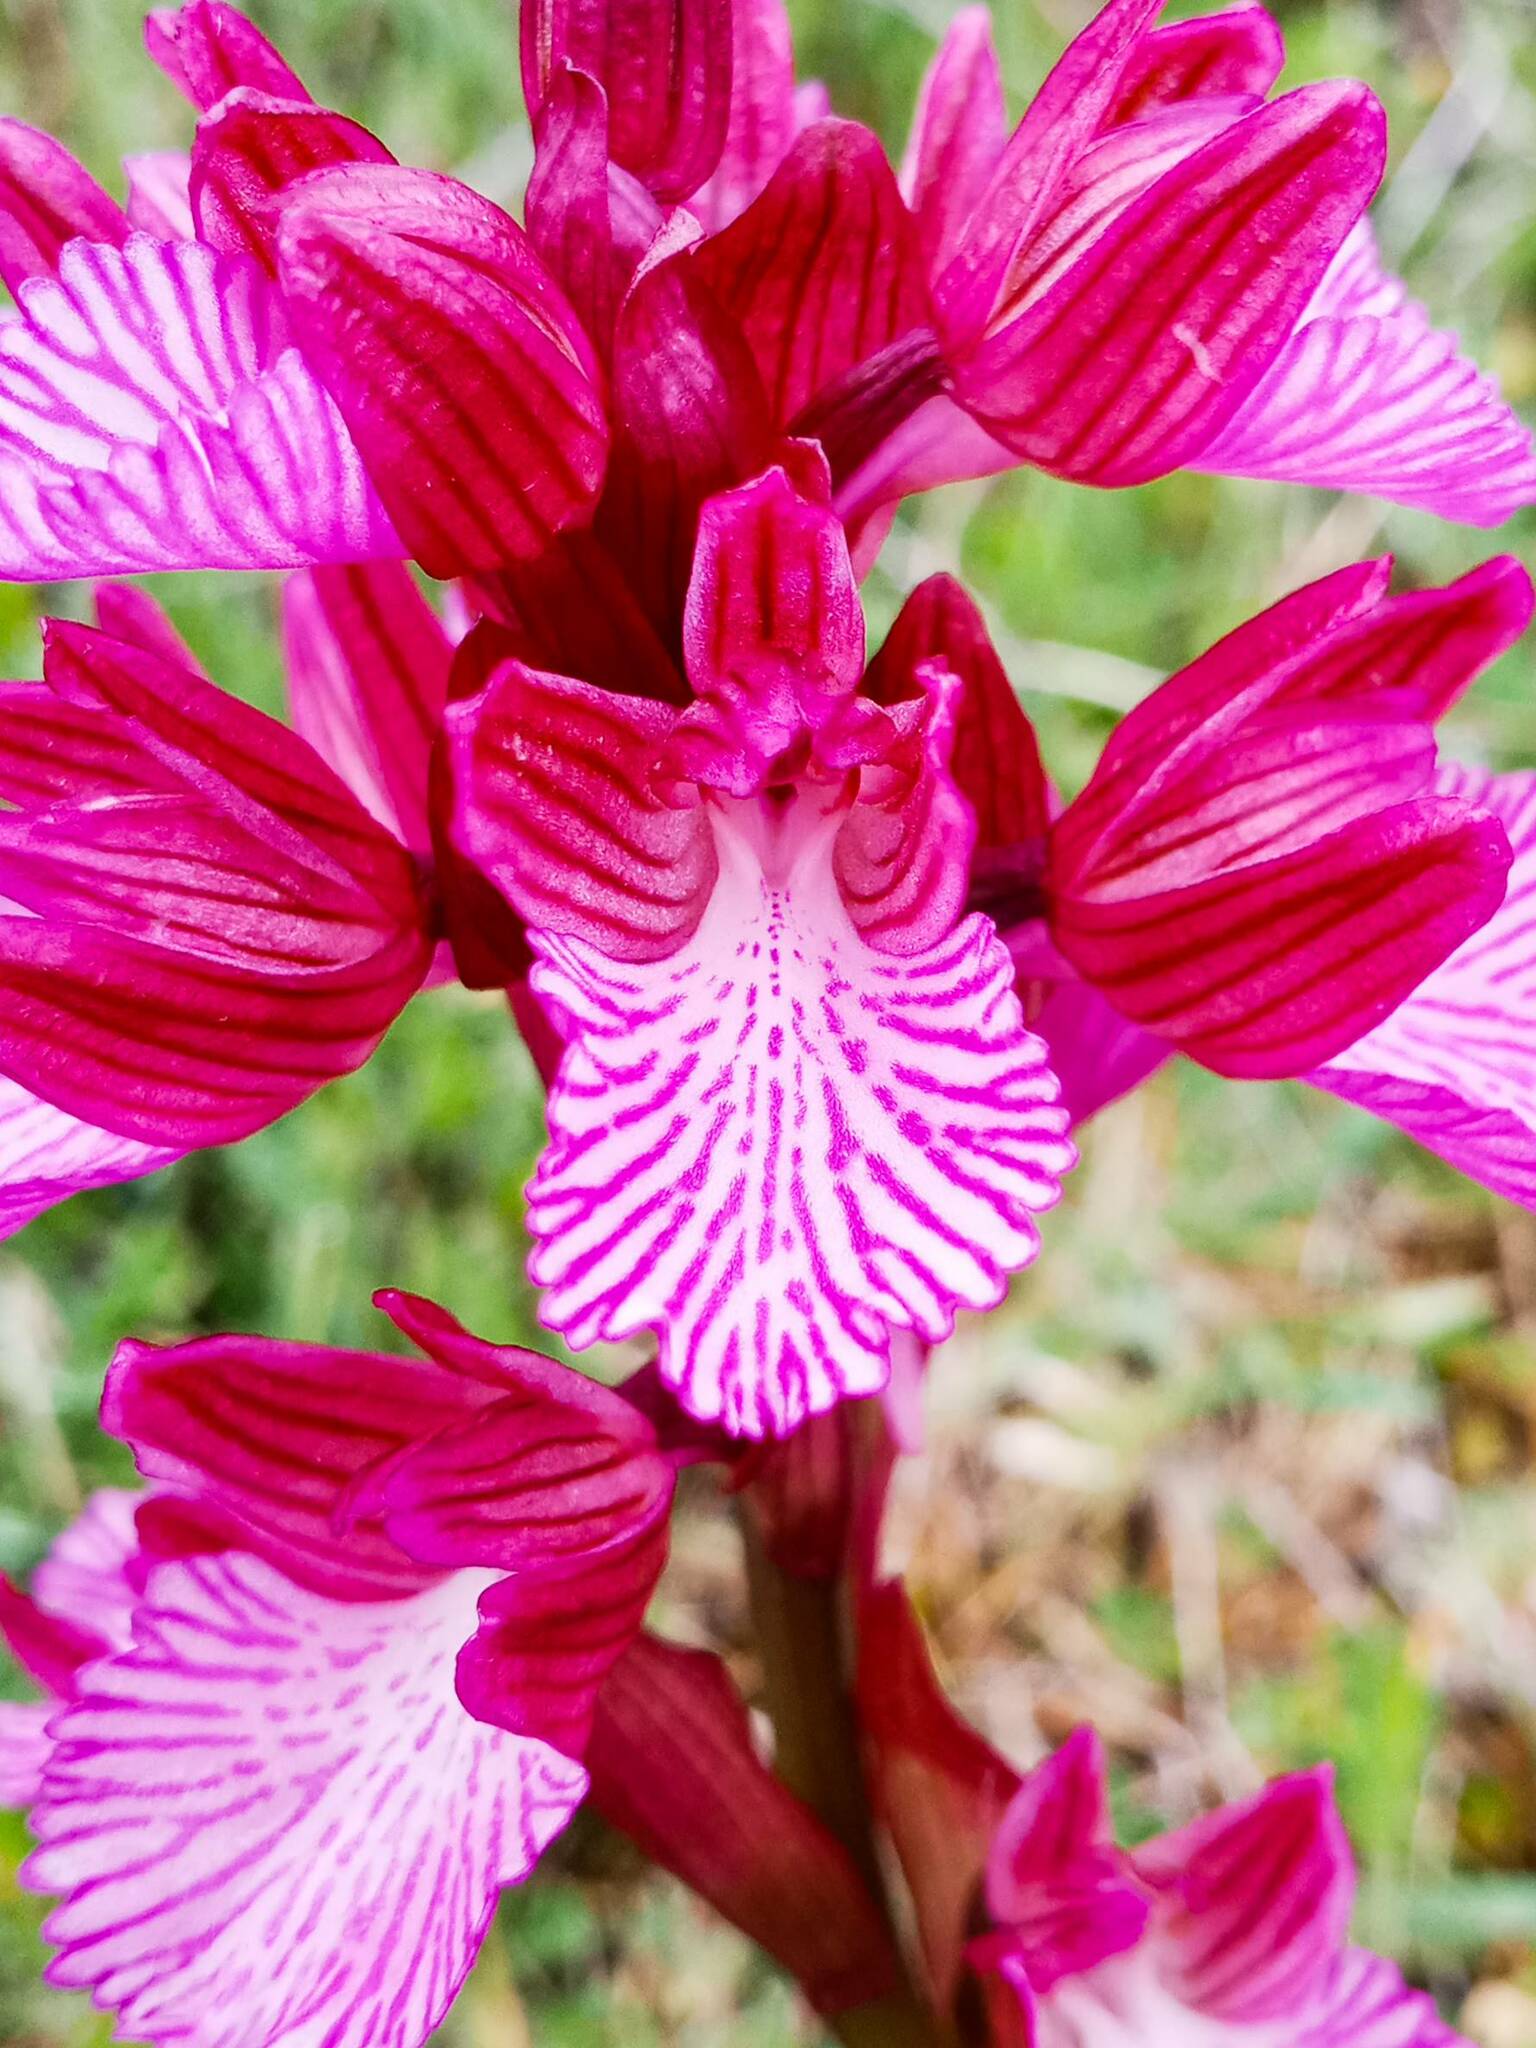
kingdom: Plantae
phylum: Tracheophyta
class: Liliopsida
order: Asparagales
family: Orchidaceae
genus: Anacamptis
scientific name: Anacamptis papilionacea
